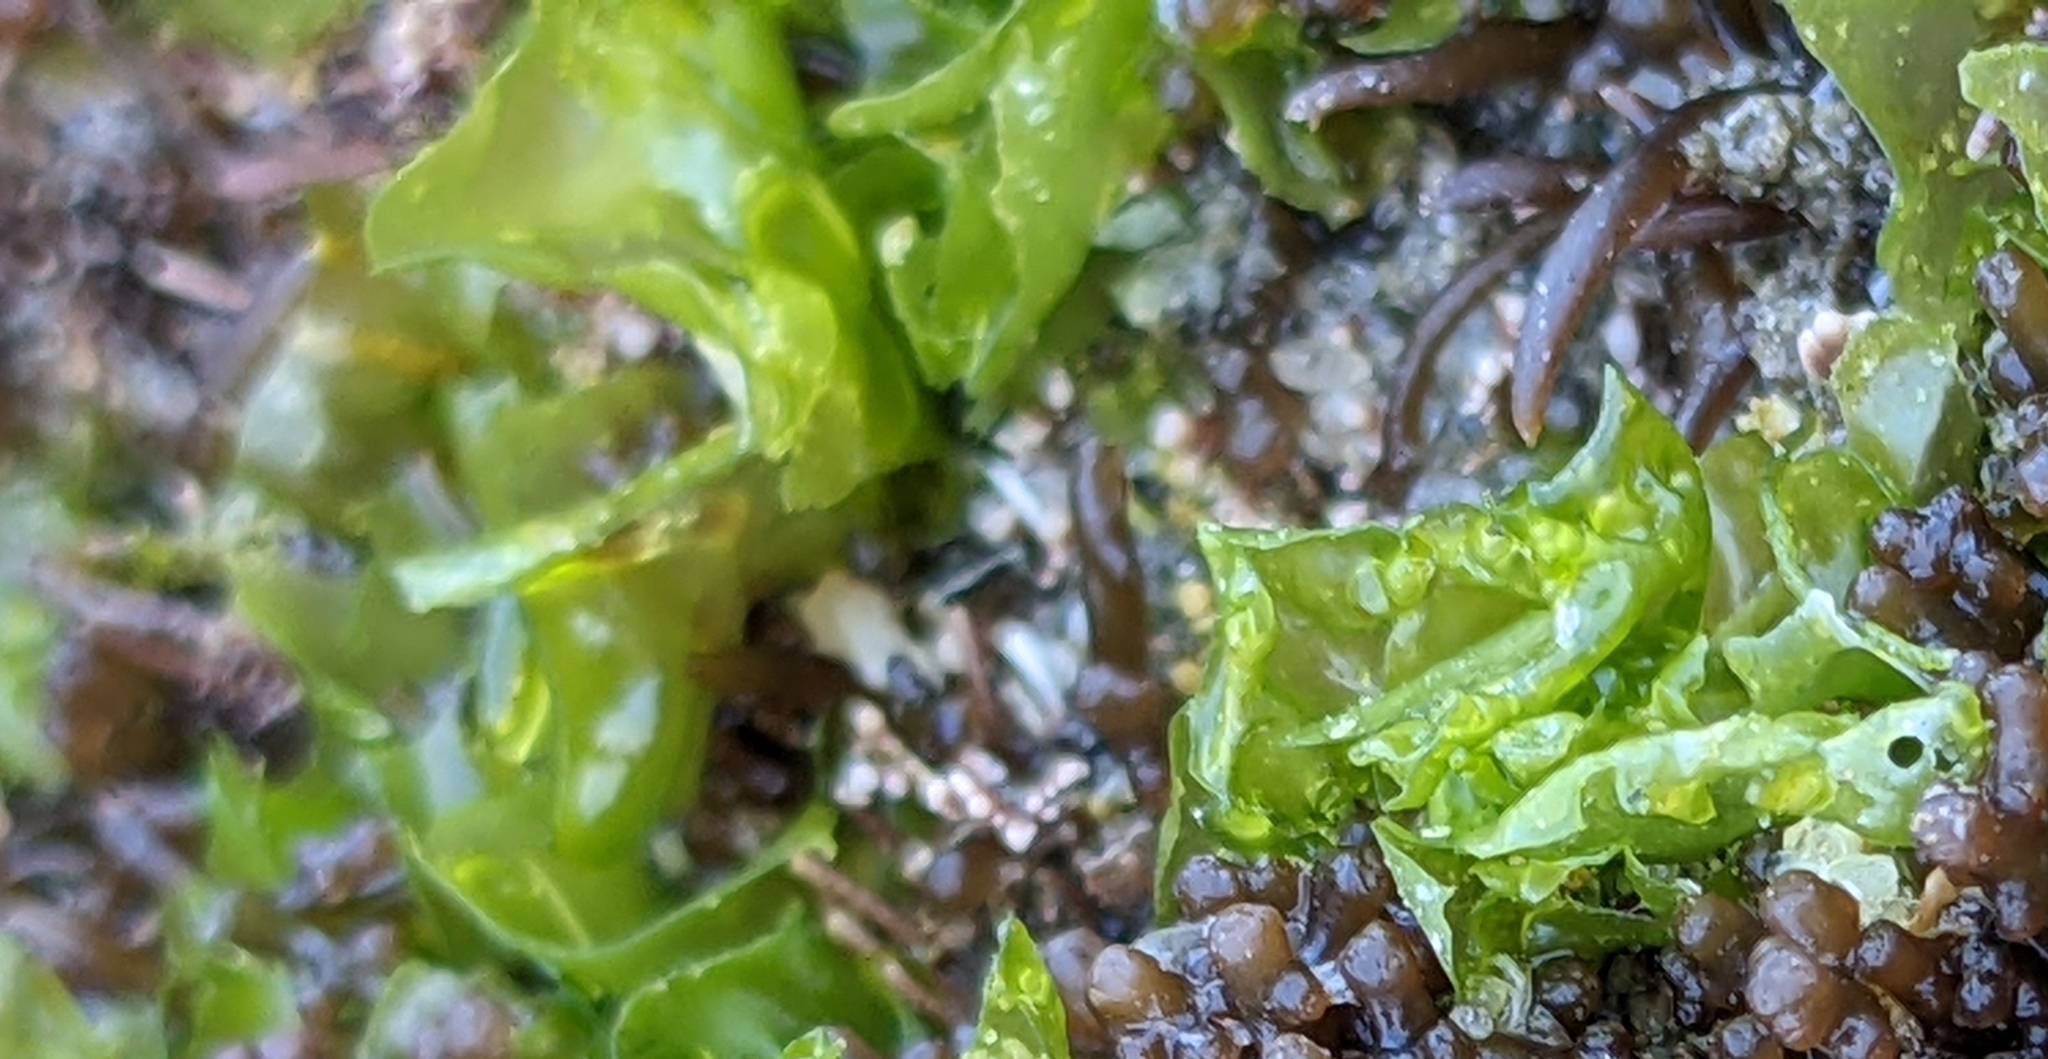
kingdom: Plantae
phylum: Chlorophyta
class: Ulvophyceae
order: Ulvales
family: Ulvaceae
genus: Ulva
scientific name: Ulva lactuca
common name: Sea lettuce
